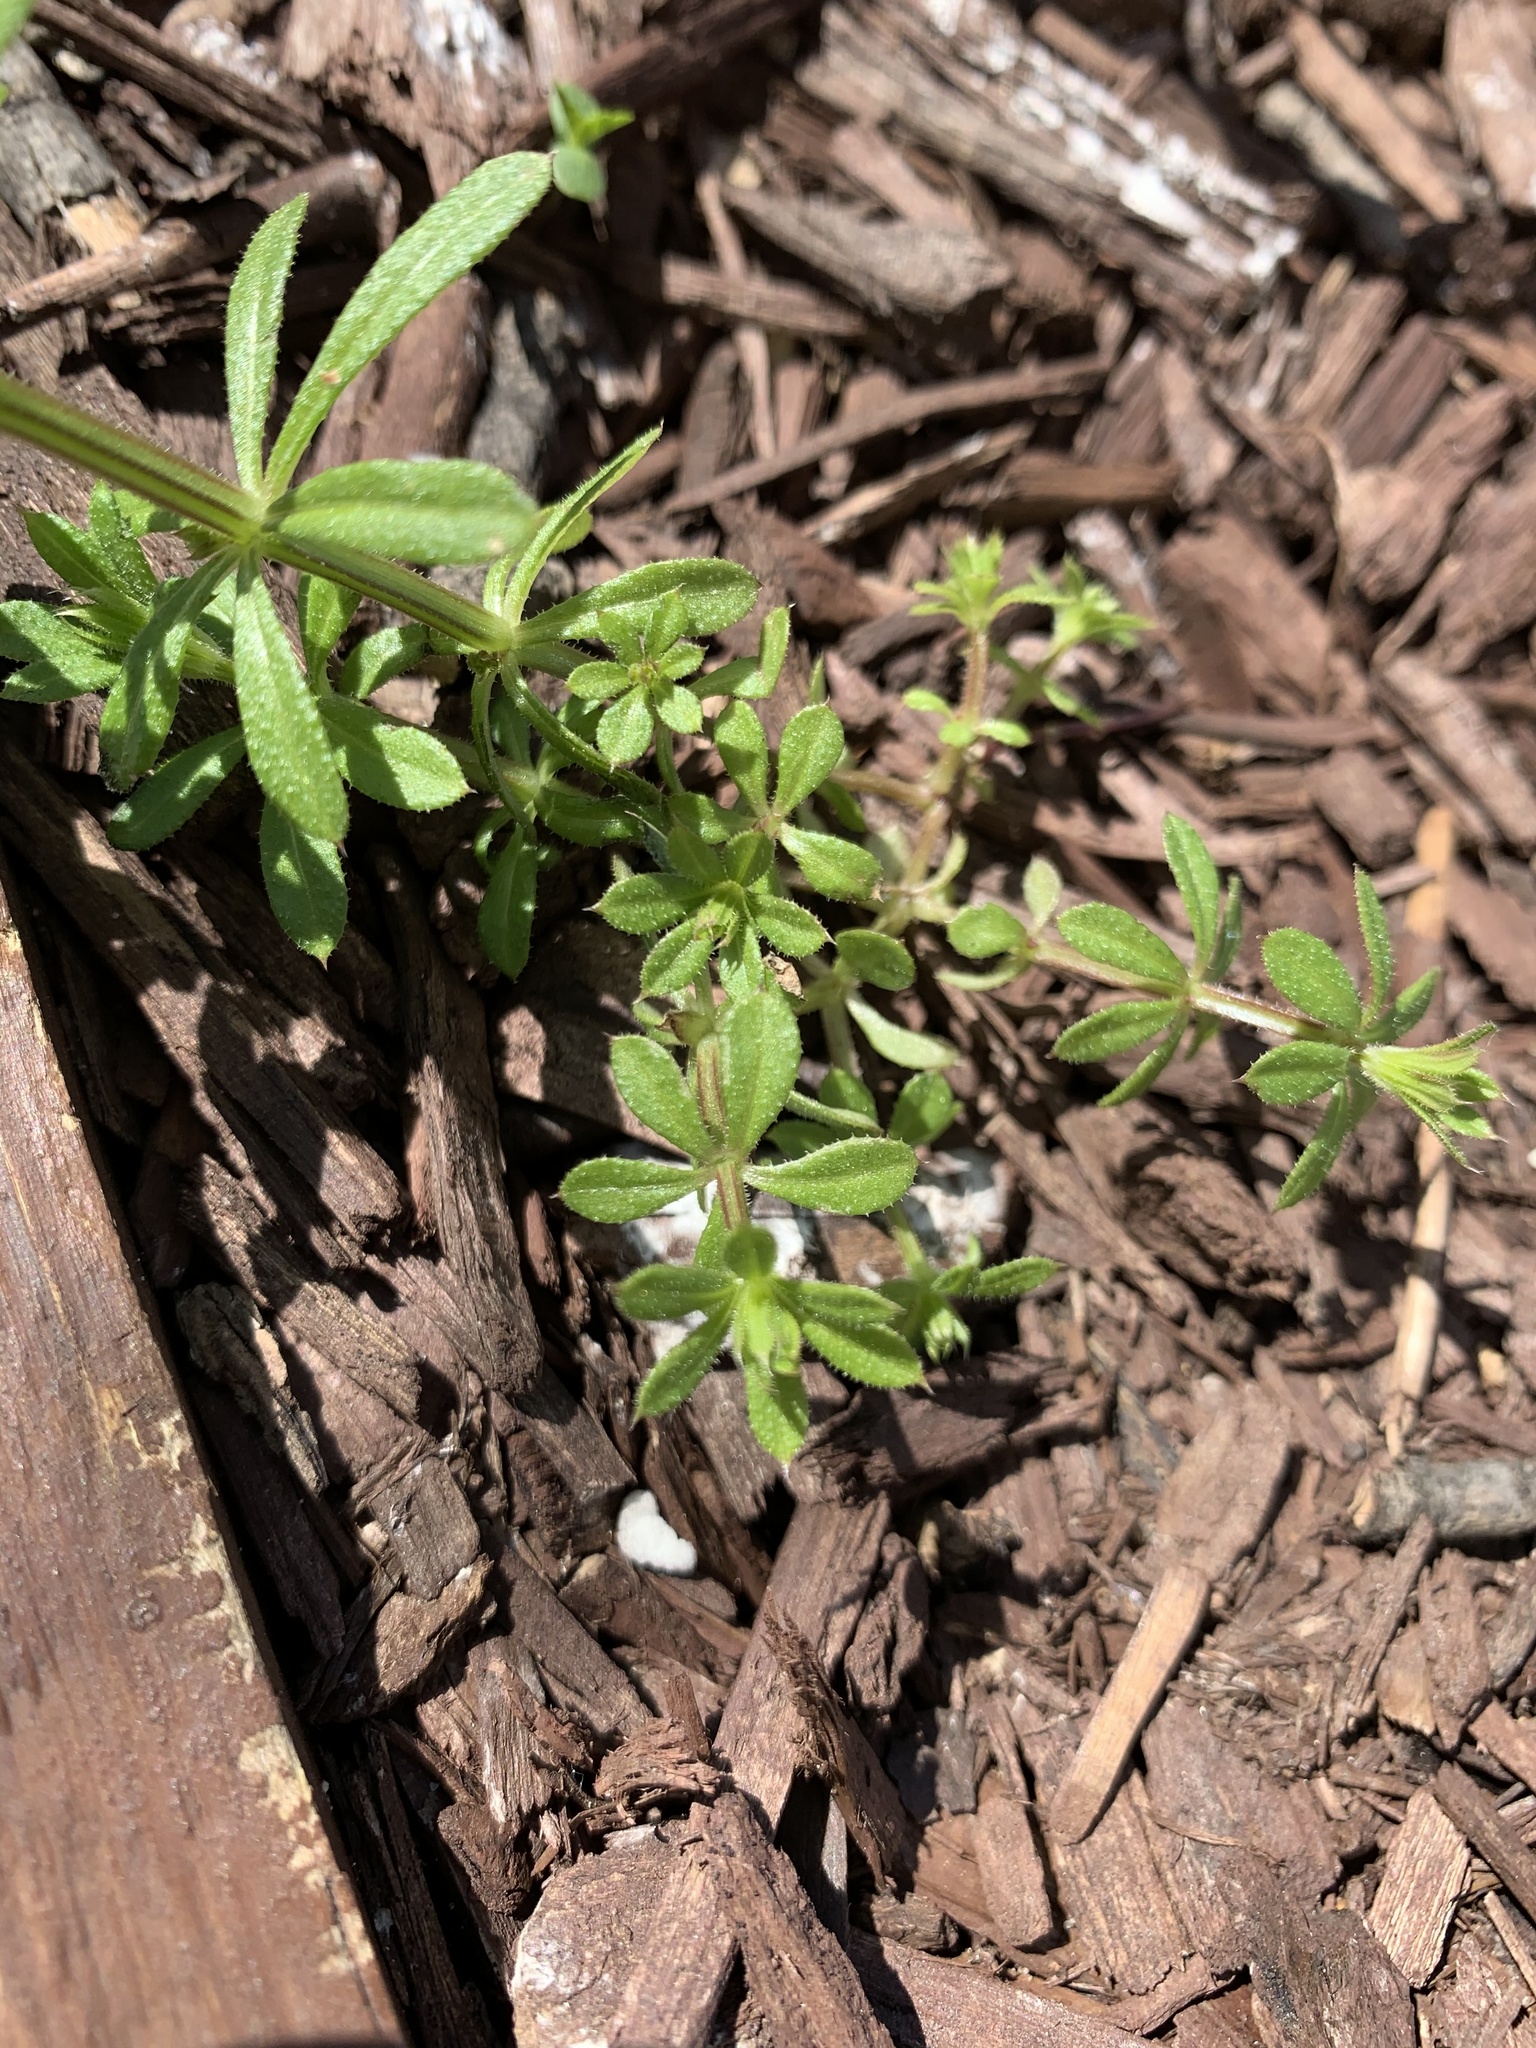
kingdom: Plantae
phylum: Tracheophyta
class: Magnoliopsida
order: Gentianales
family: Rubiaceae
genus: Galium
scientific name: Galium aparine
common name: Cleavers
